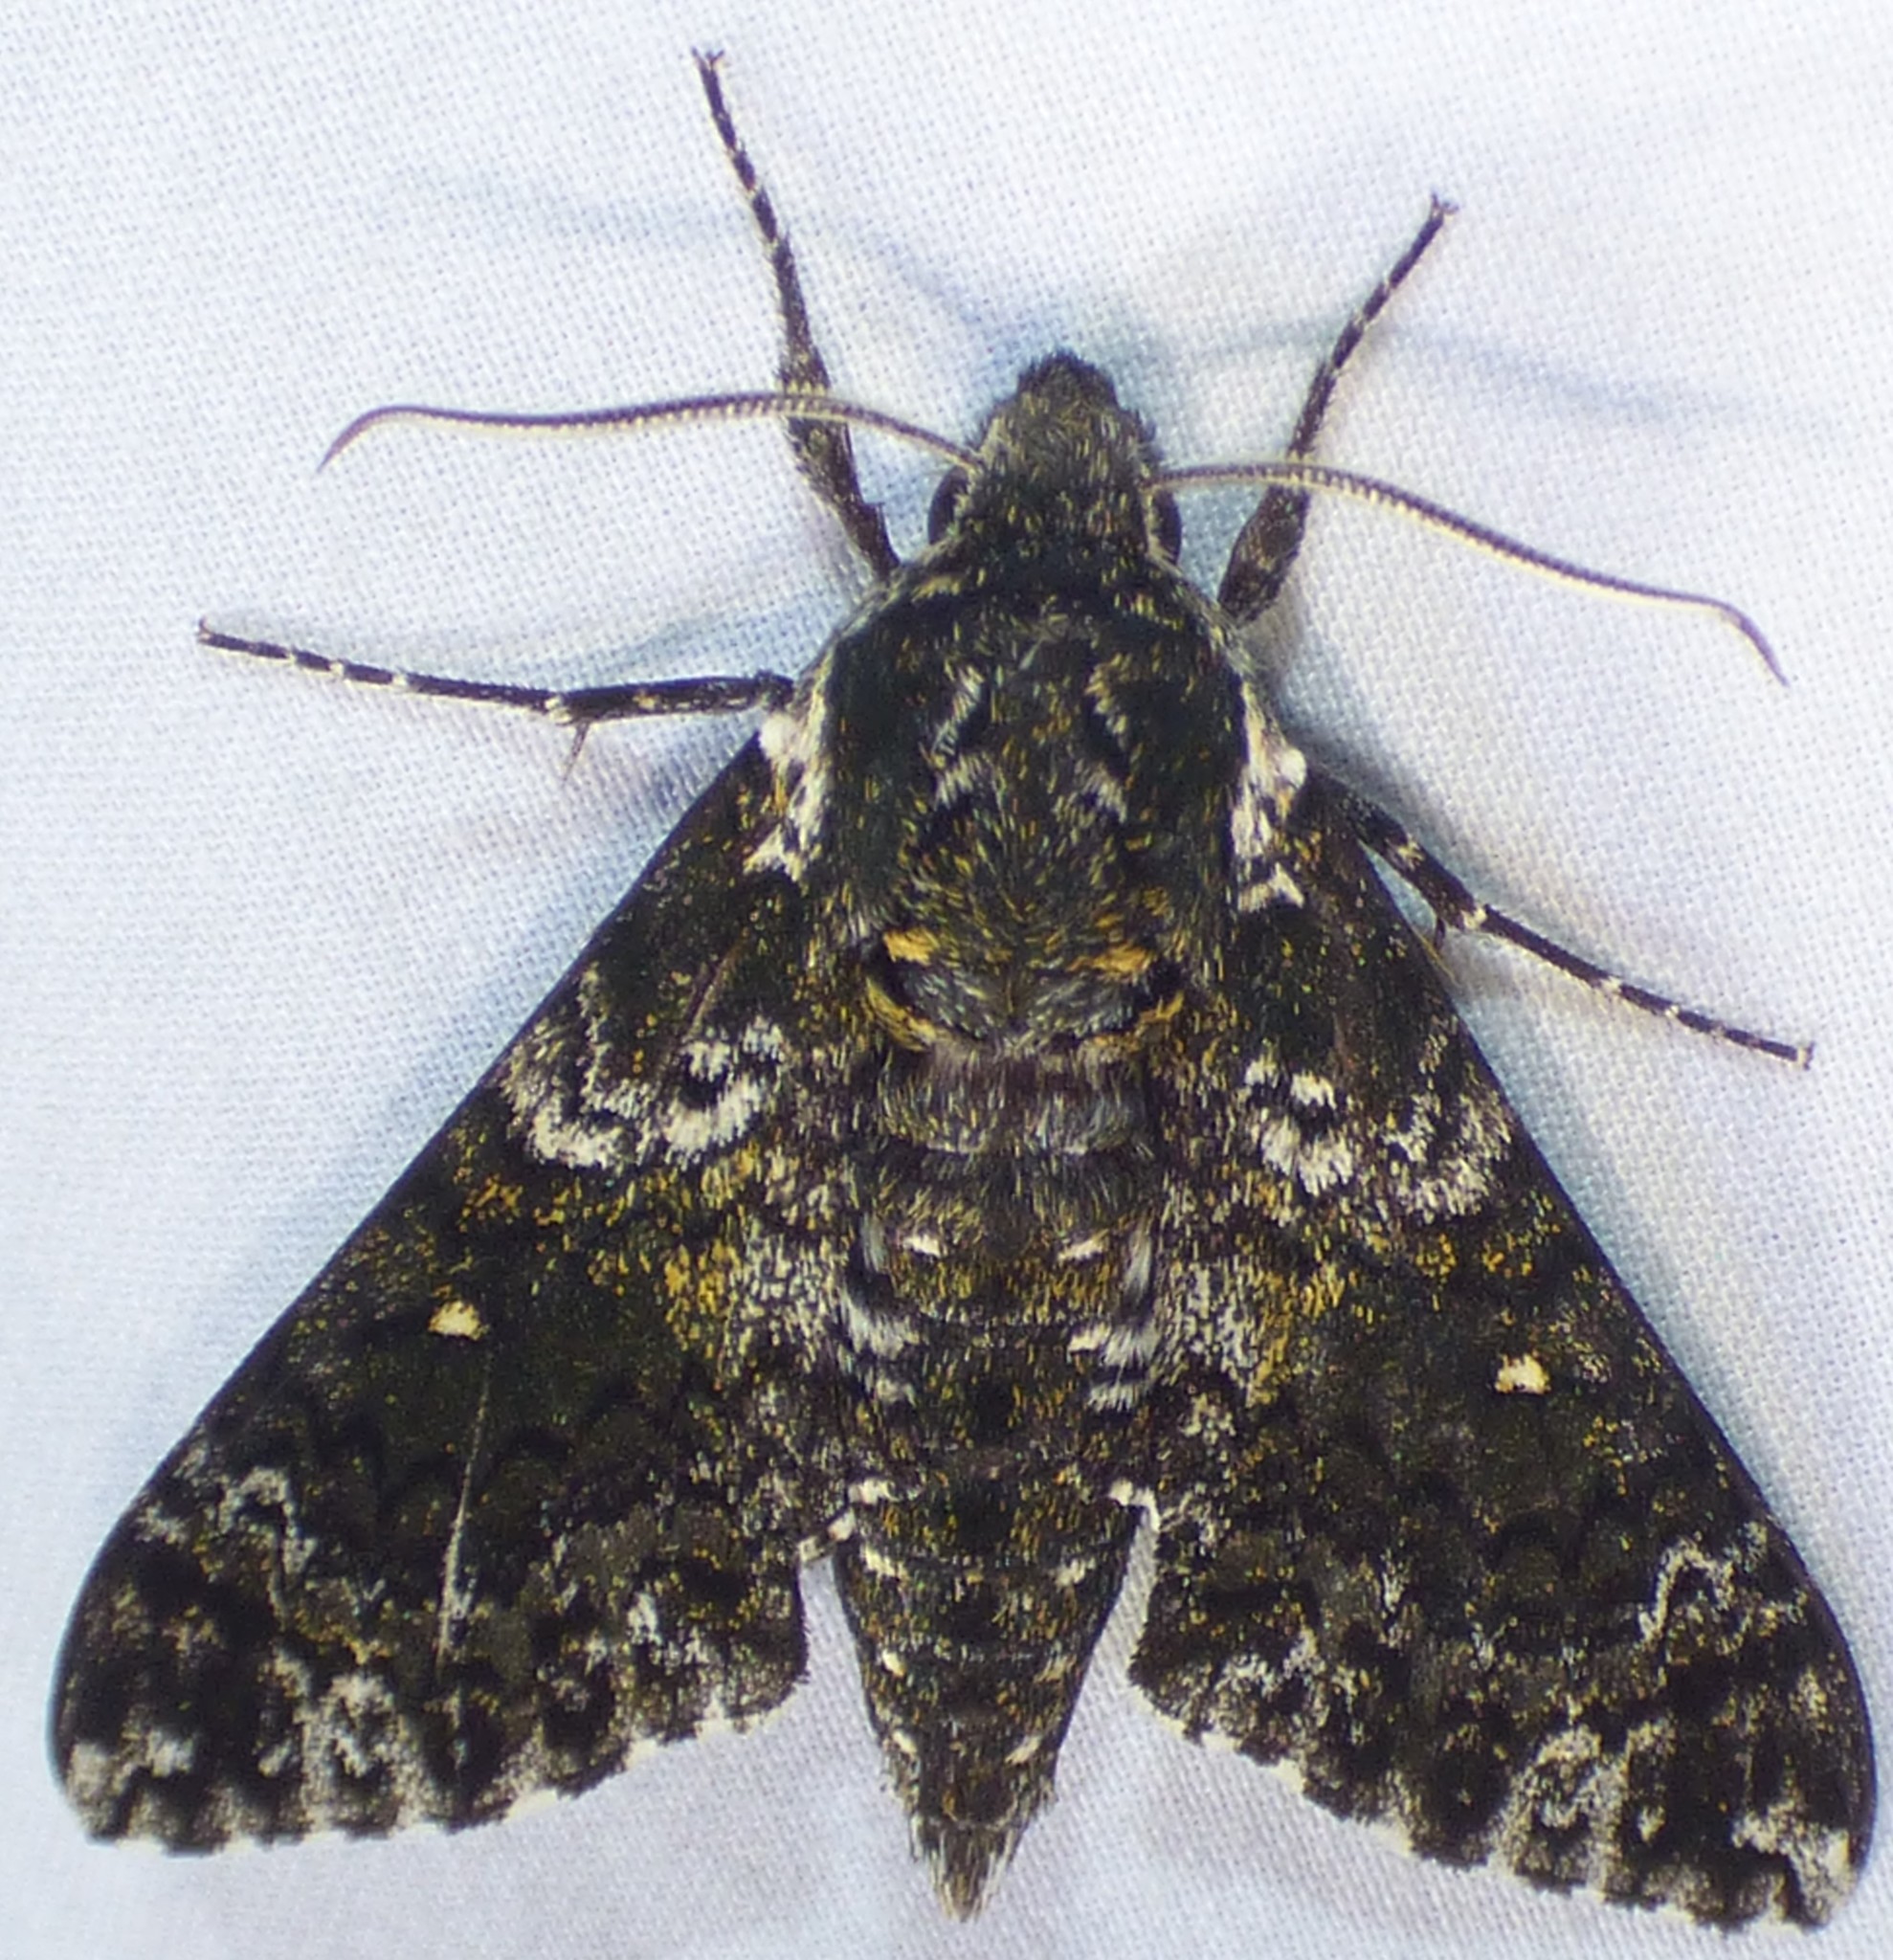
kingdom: Animalia
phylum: Arthropoda
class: Insecta
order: Lepidoptera
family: Sphingidae
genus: Dolba
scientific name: Dolba hyloeus
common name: Pawpaw sphinx
